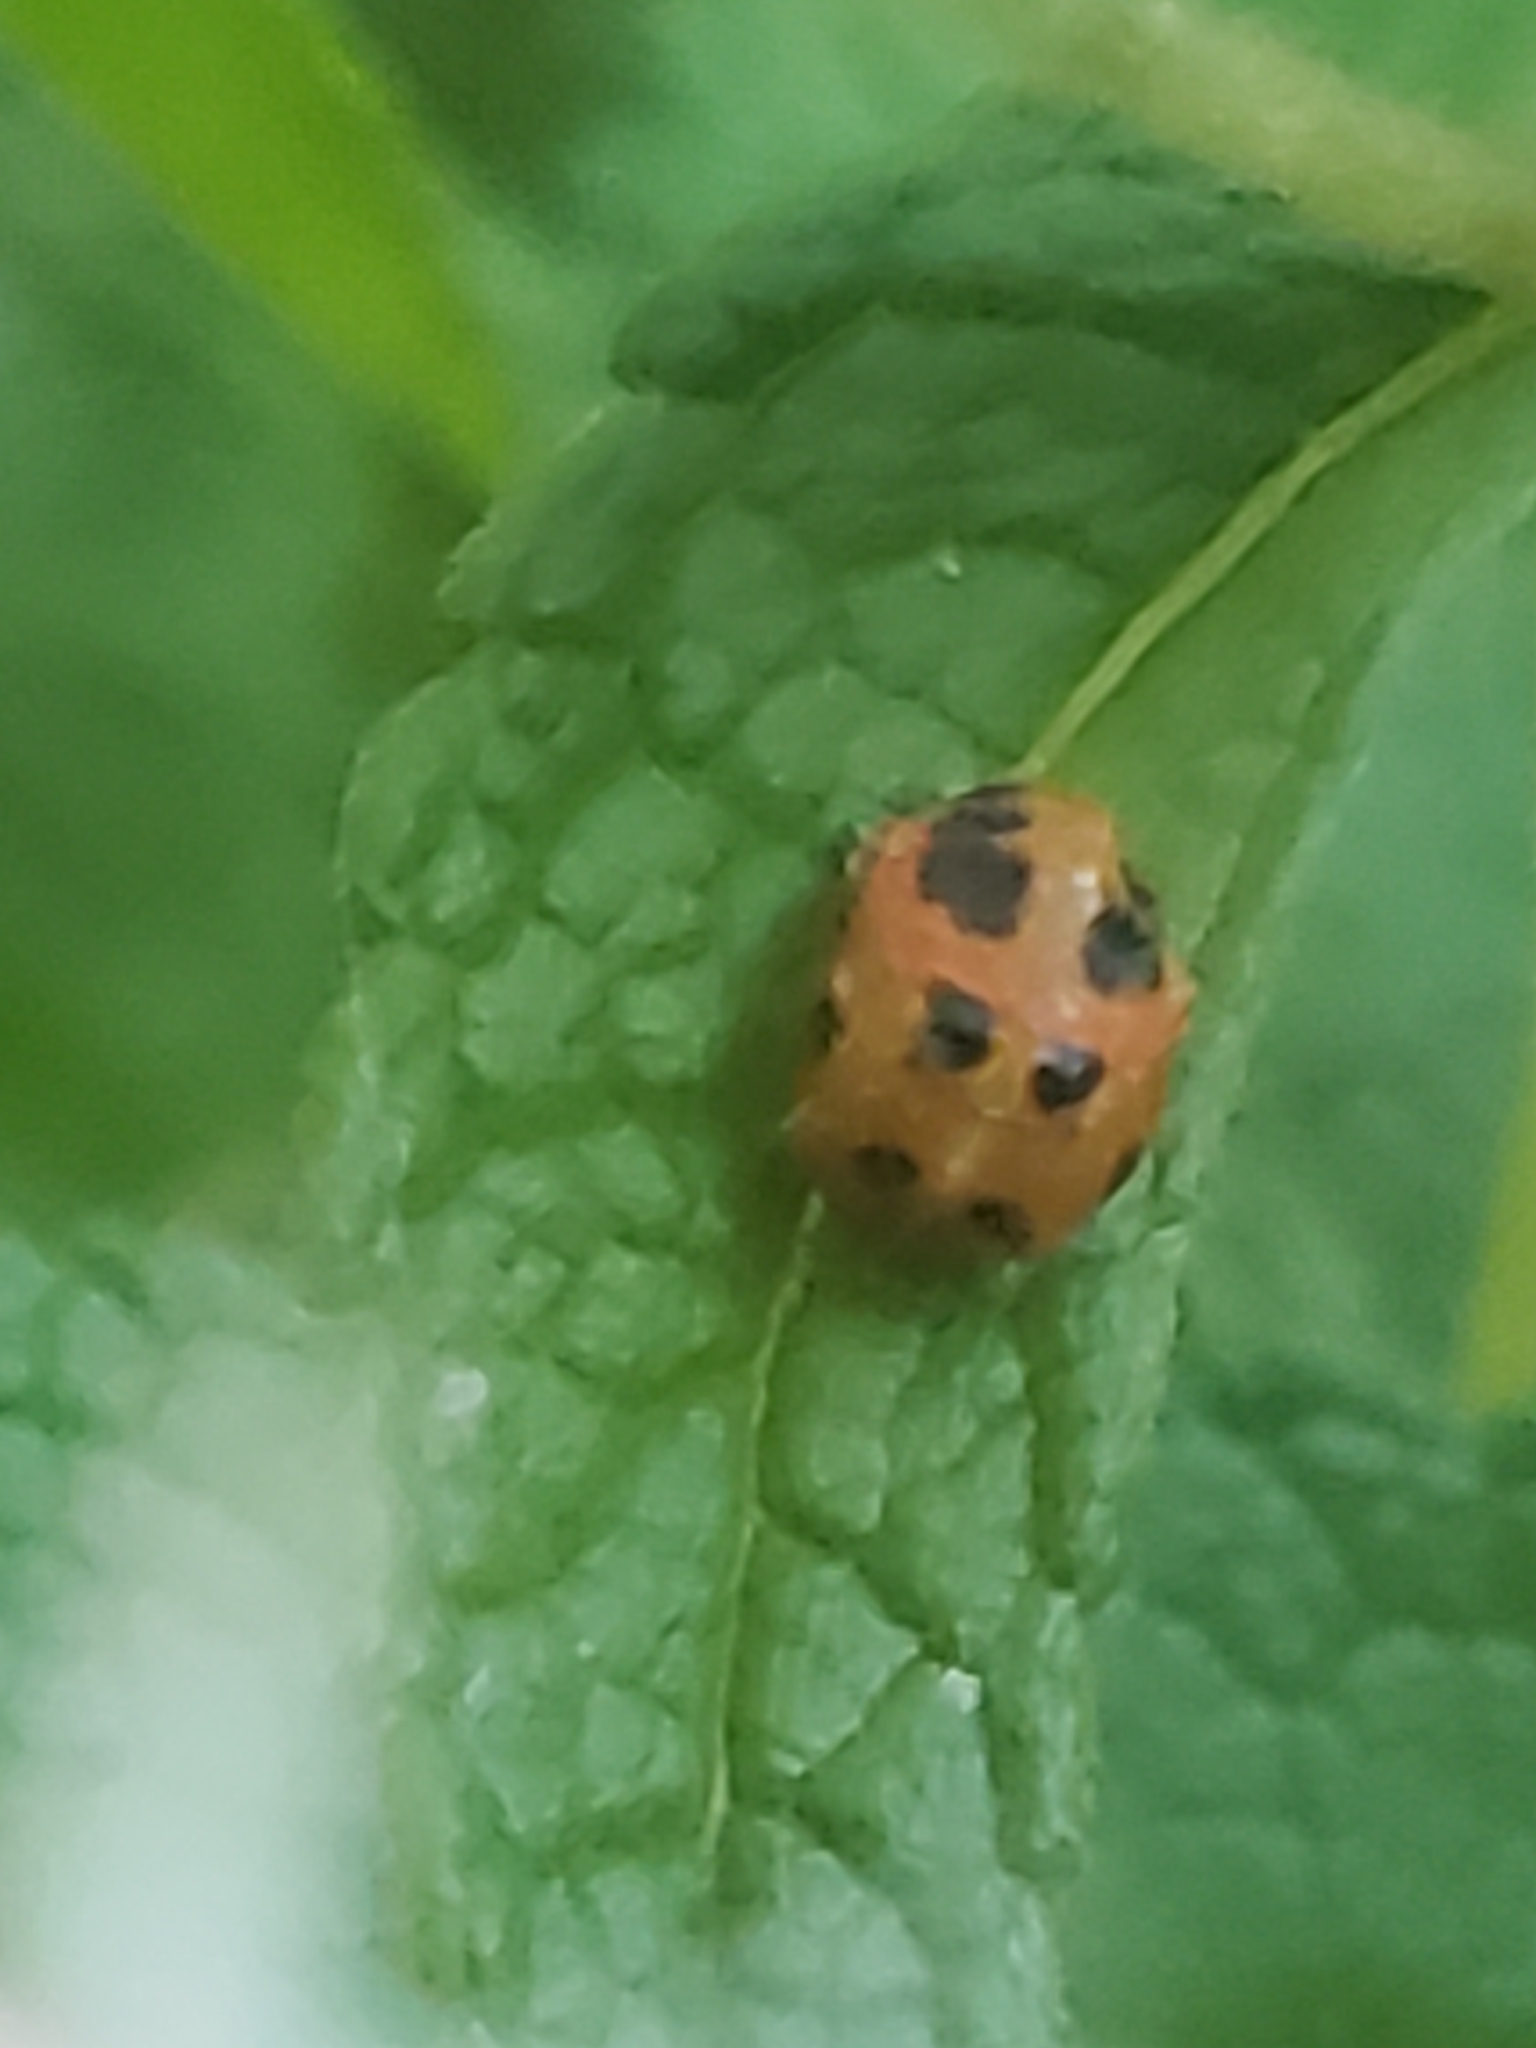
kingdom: Animalia
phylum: Arthropoda
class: Insecta
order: Coleoptera
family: Coccinellidae
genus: Harmonia
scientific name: Harmonia axyridis
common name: Harlequin ladybird
